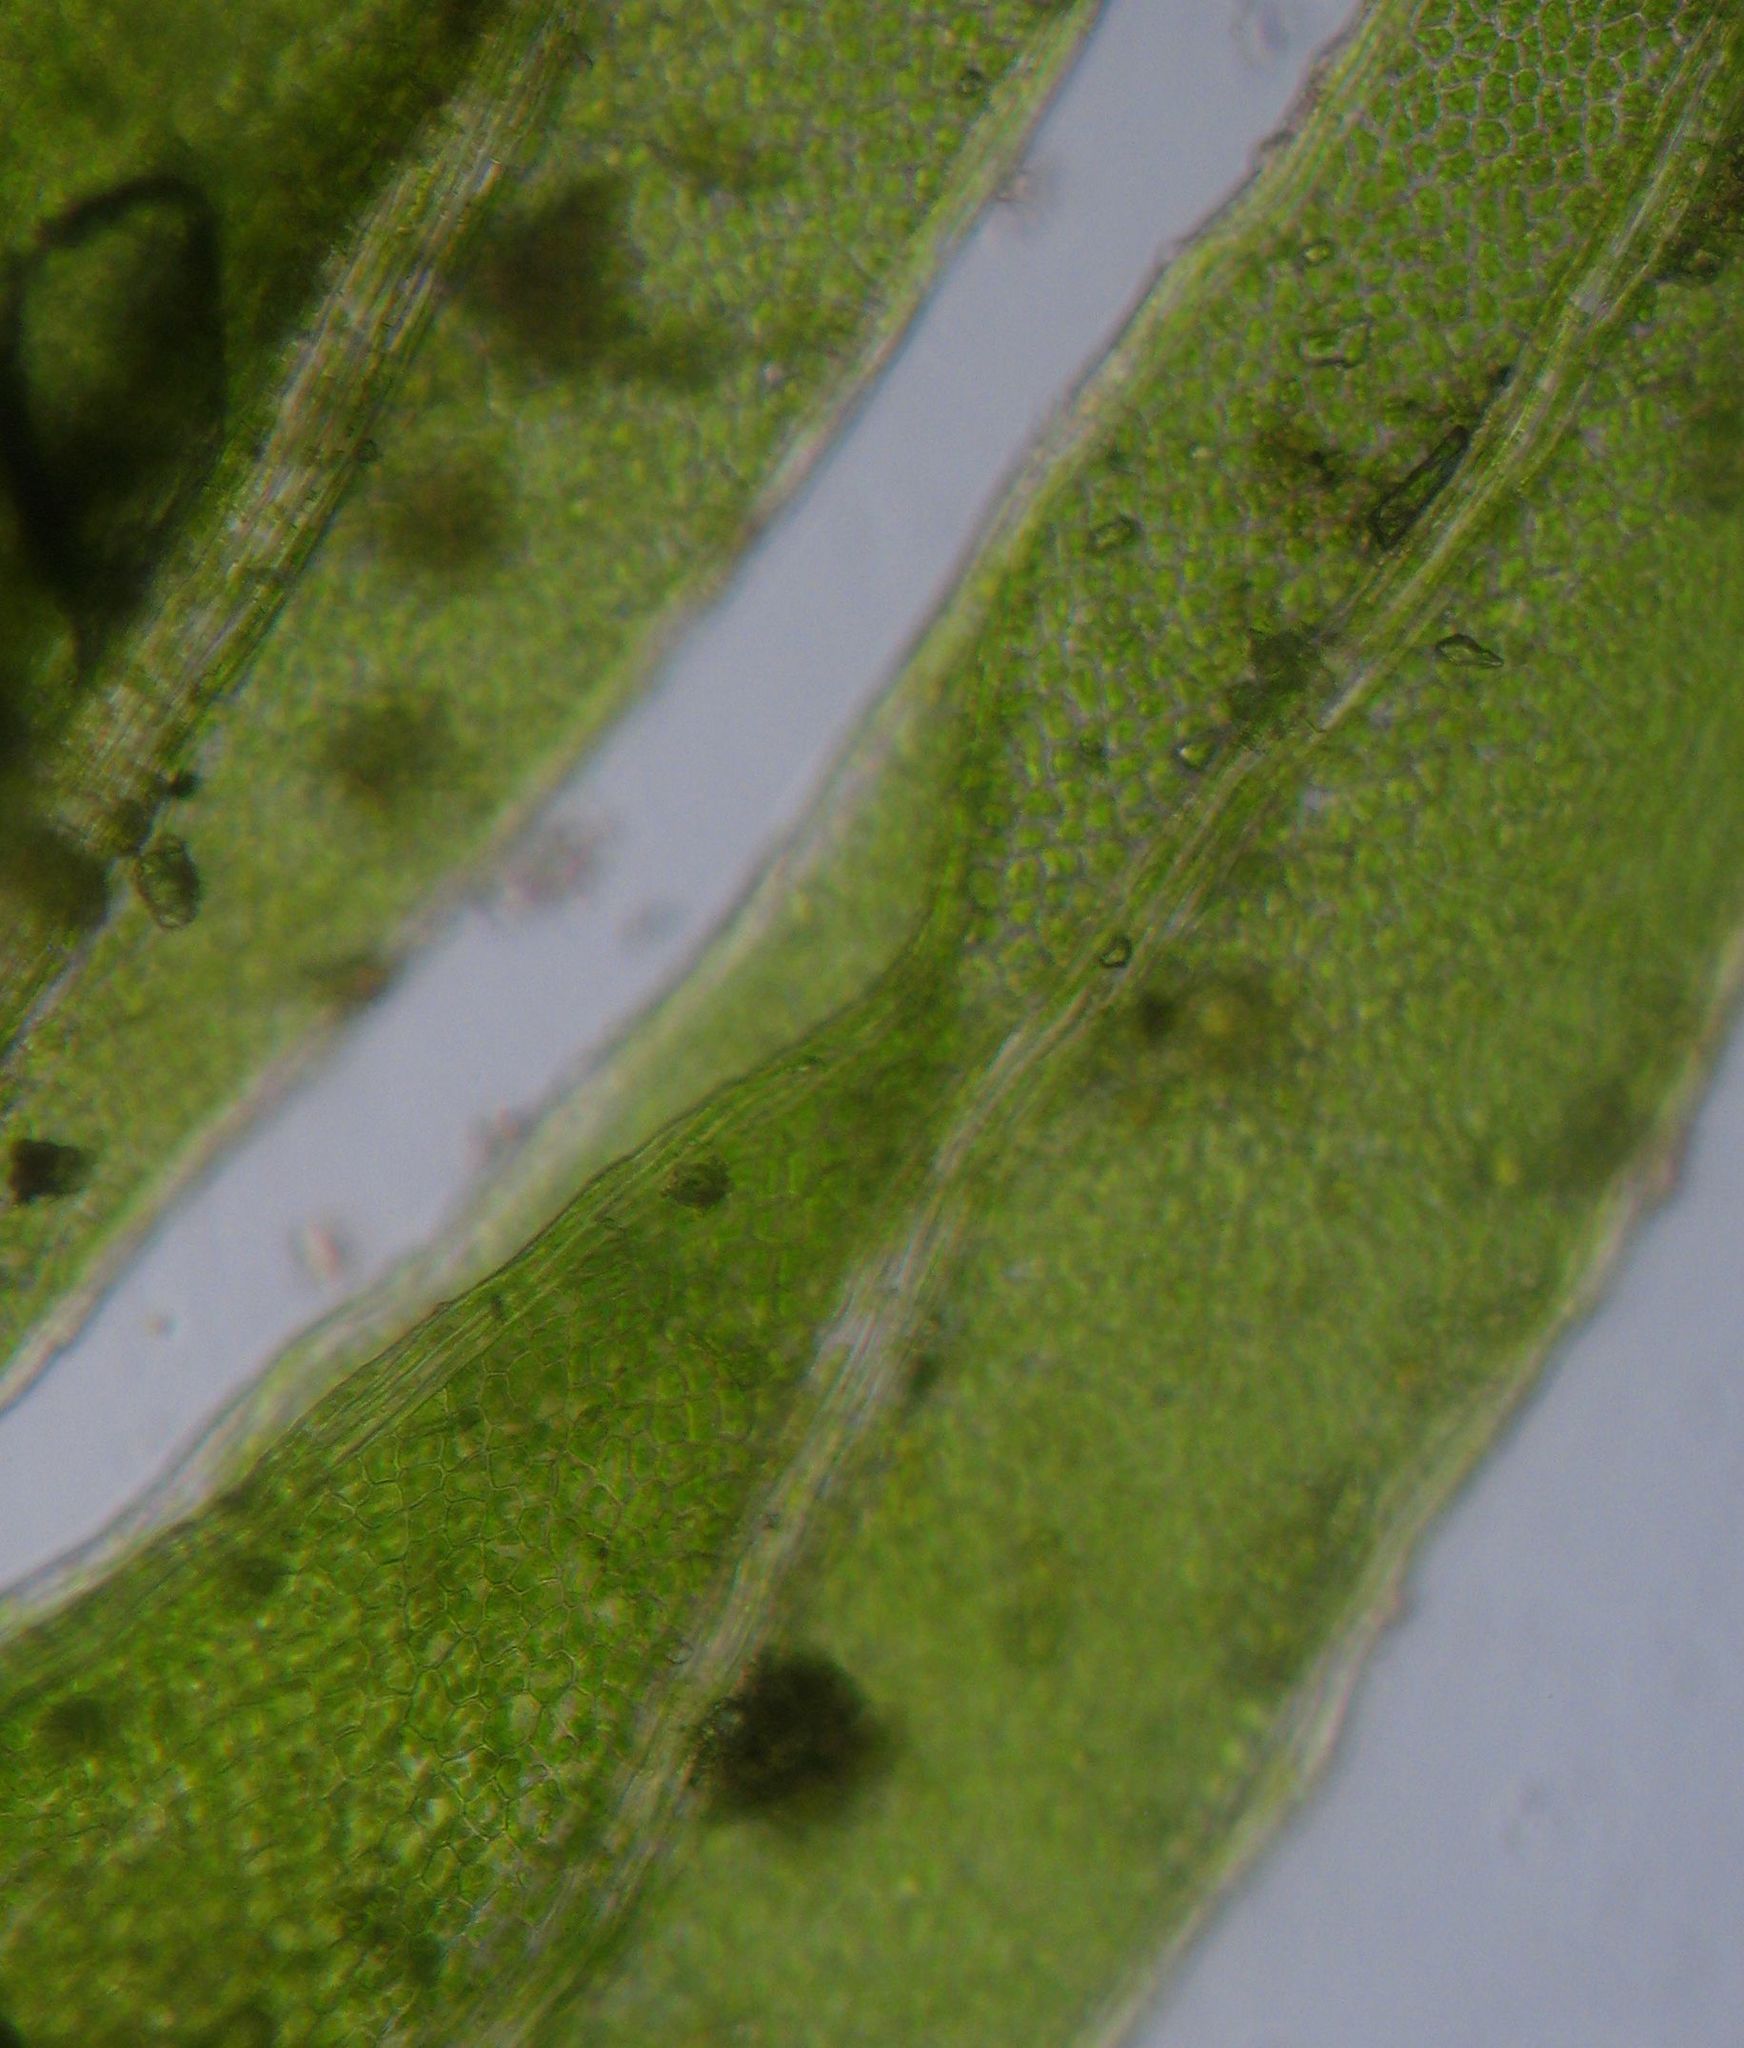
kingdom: Plantae
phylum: Bryophyta
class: Bryopsida
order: Dicranales
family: Fissidentaceae
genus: Fissidens
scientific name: Fissidens curvatus
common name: Milo's fissidens moss
